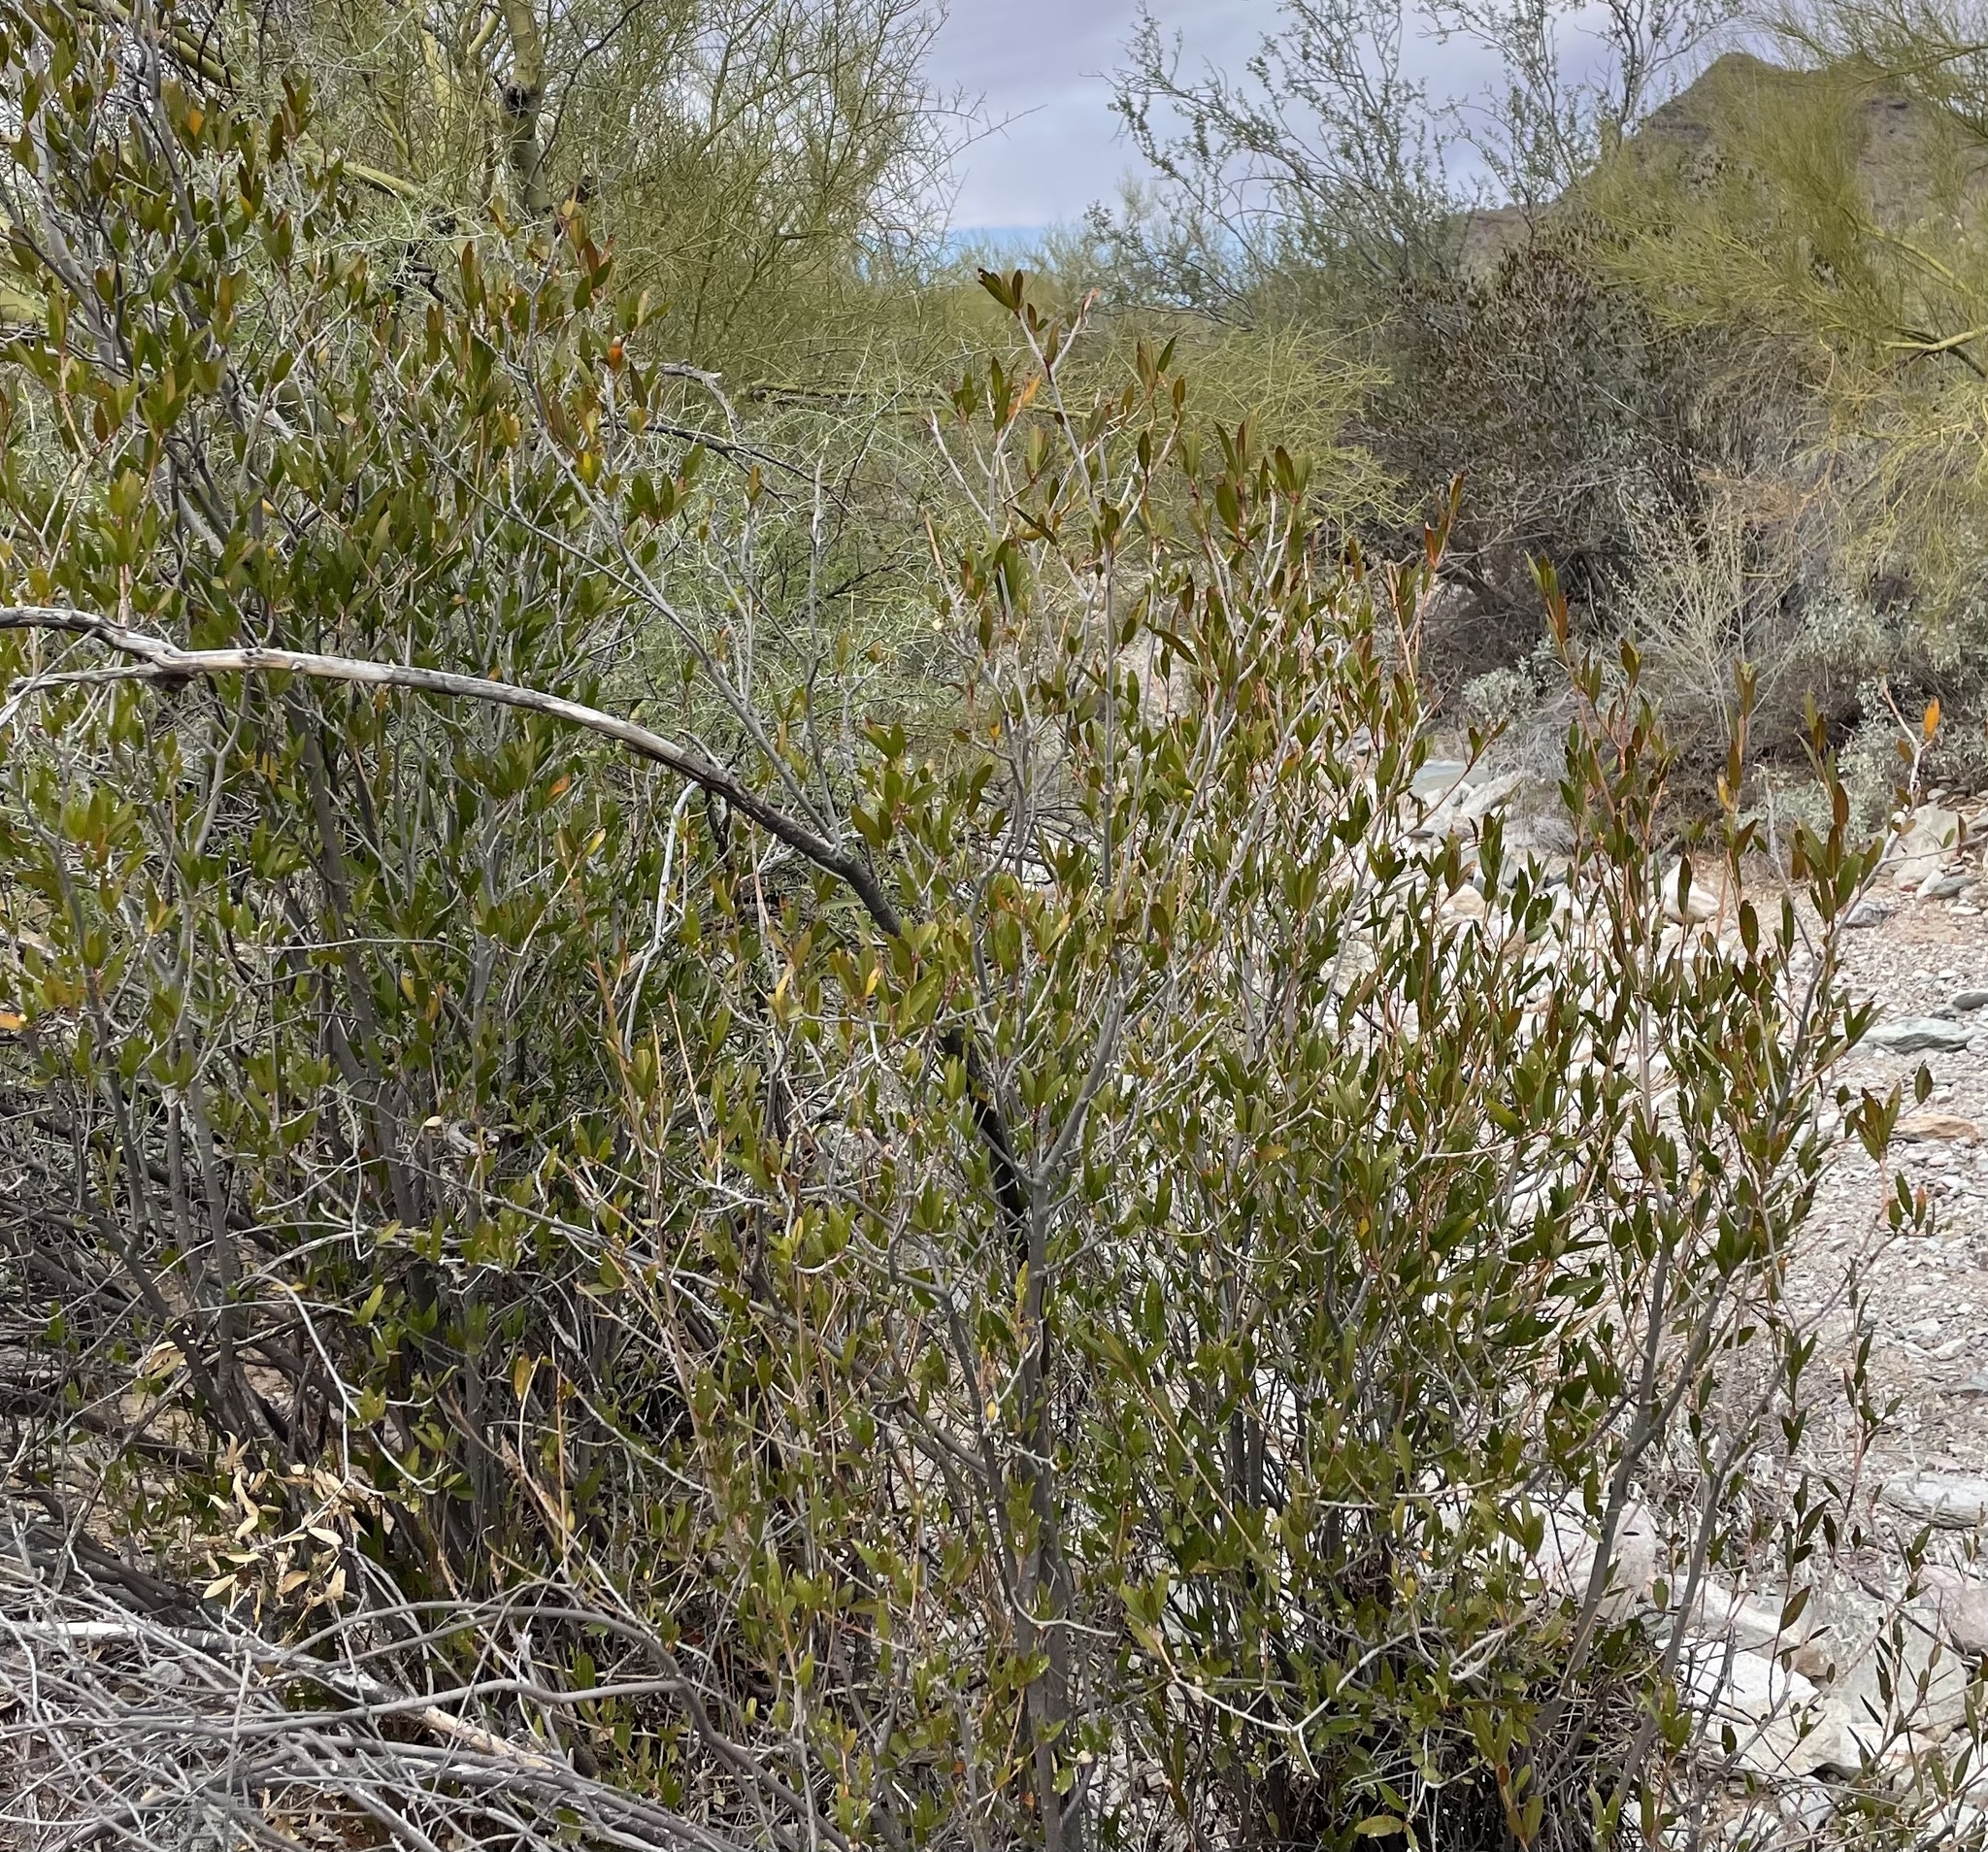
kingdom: Plantae
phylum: Tracheophyta
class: Magnoliopsida
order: Malpighiales
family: Euphorbiaceae
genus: Pleradenophora
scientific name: Pleradenophora bilocularis
